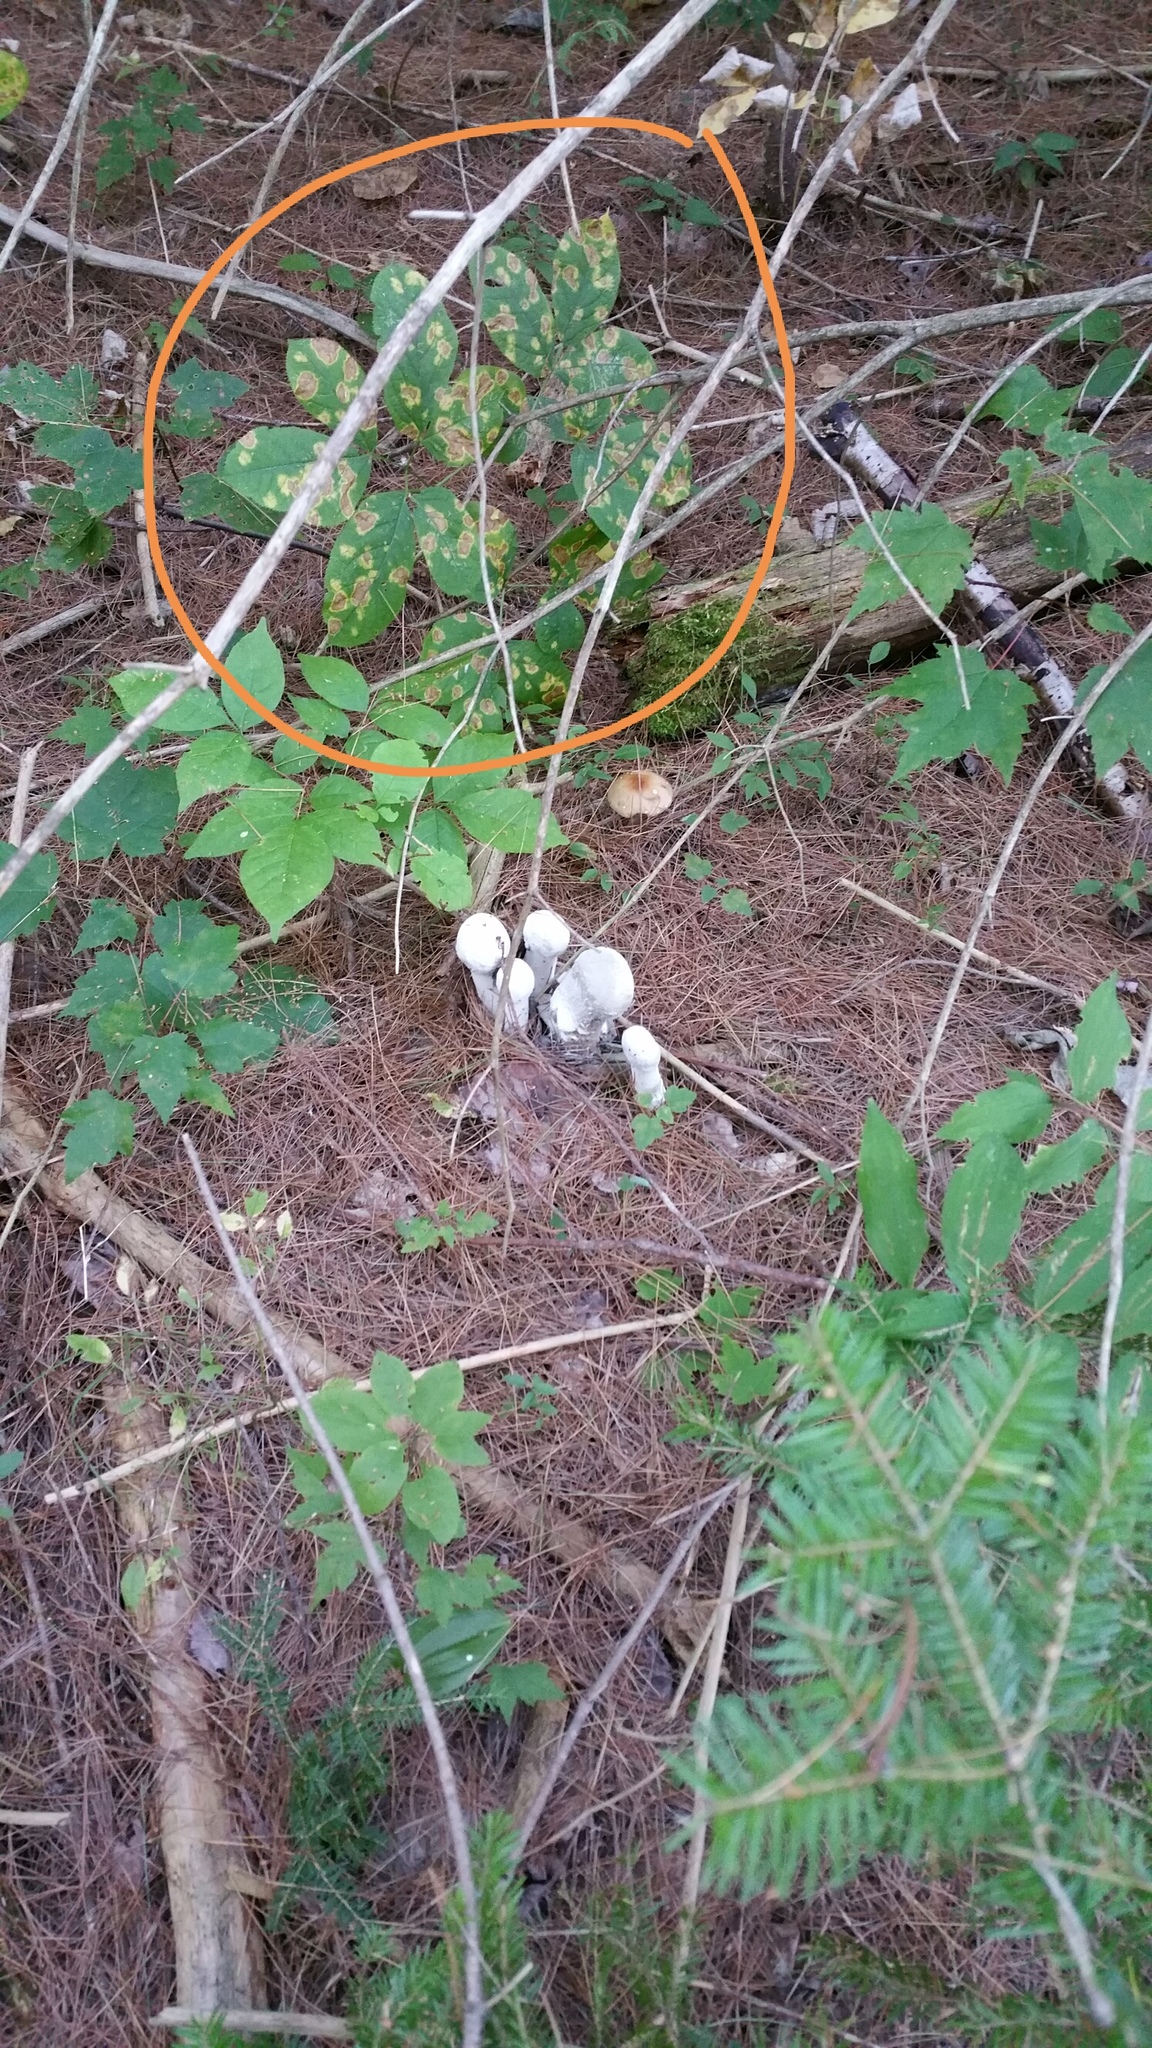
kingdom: Plantae
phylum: Tracheophyta
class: Magnoliopsida
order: Apiales
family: Araliaceae
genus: Aralia
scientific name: Aralia nudicaulis
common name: Wild sarsaparilla
